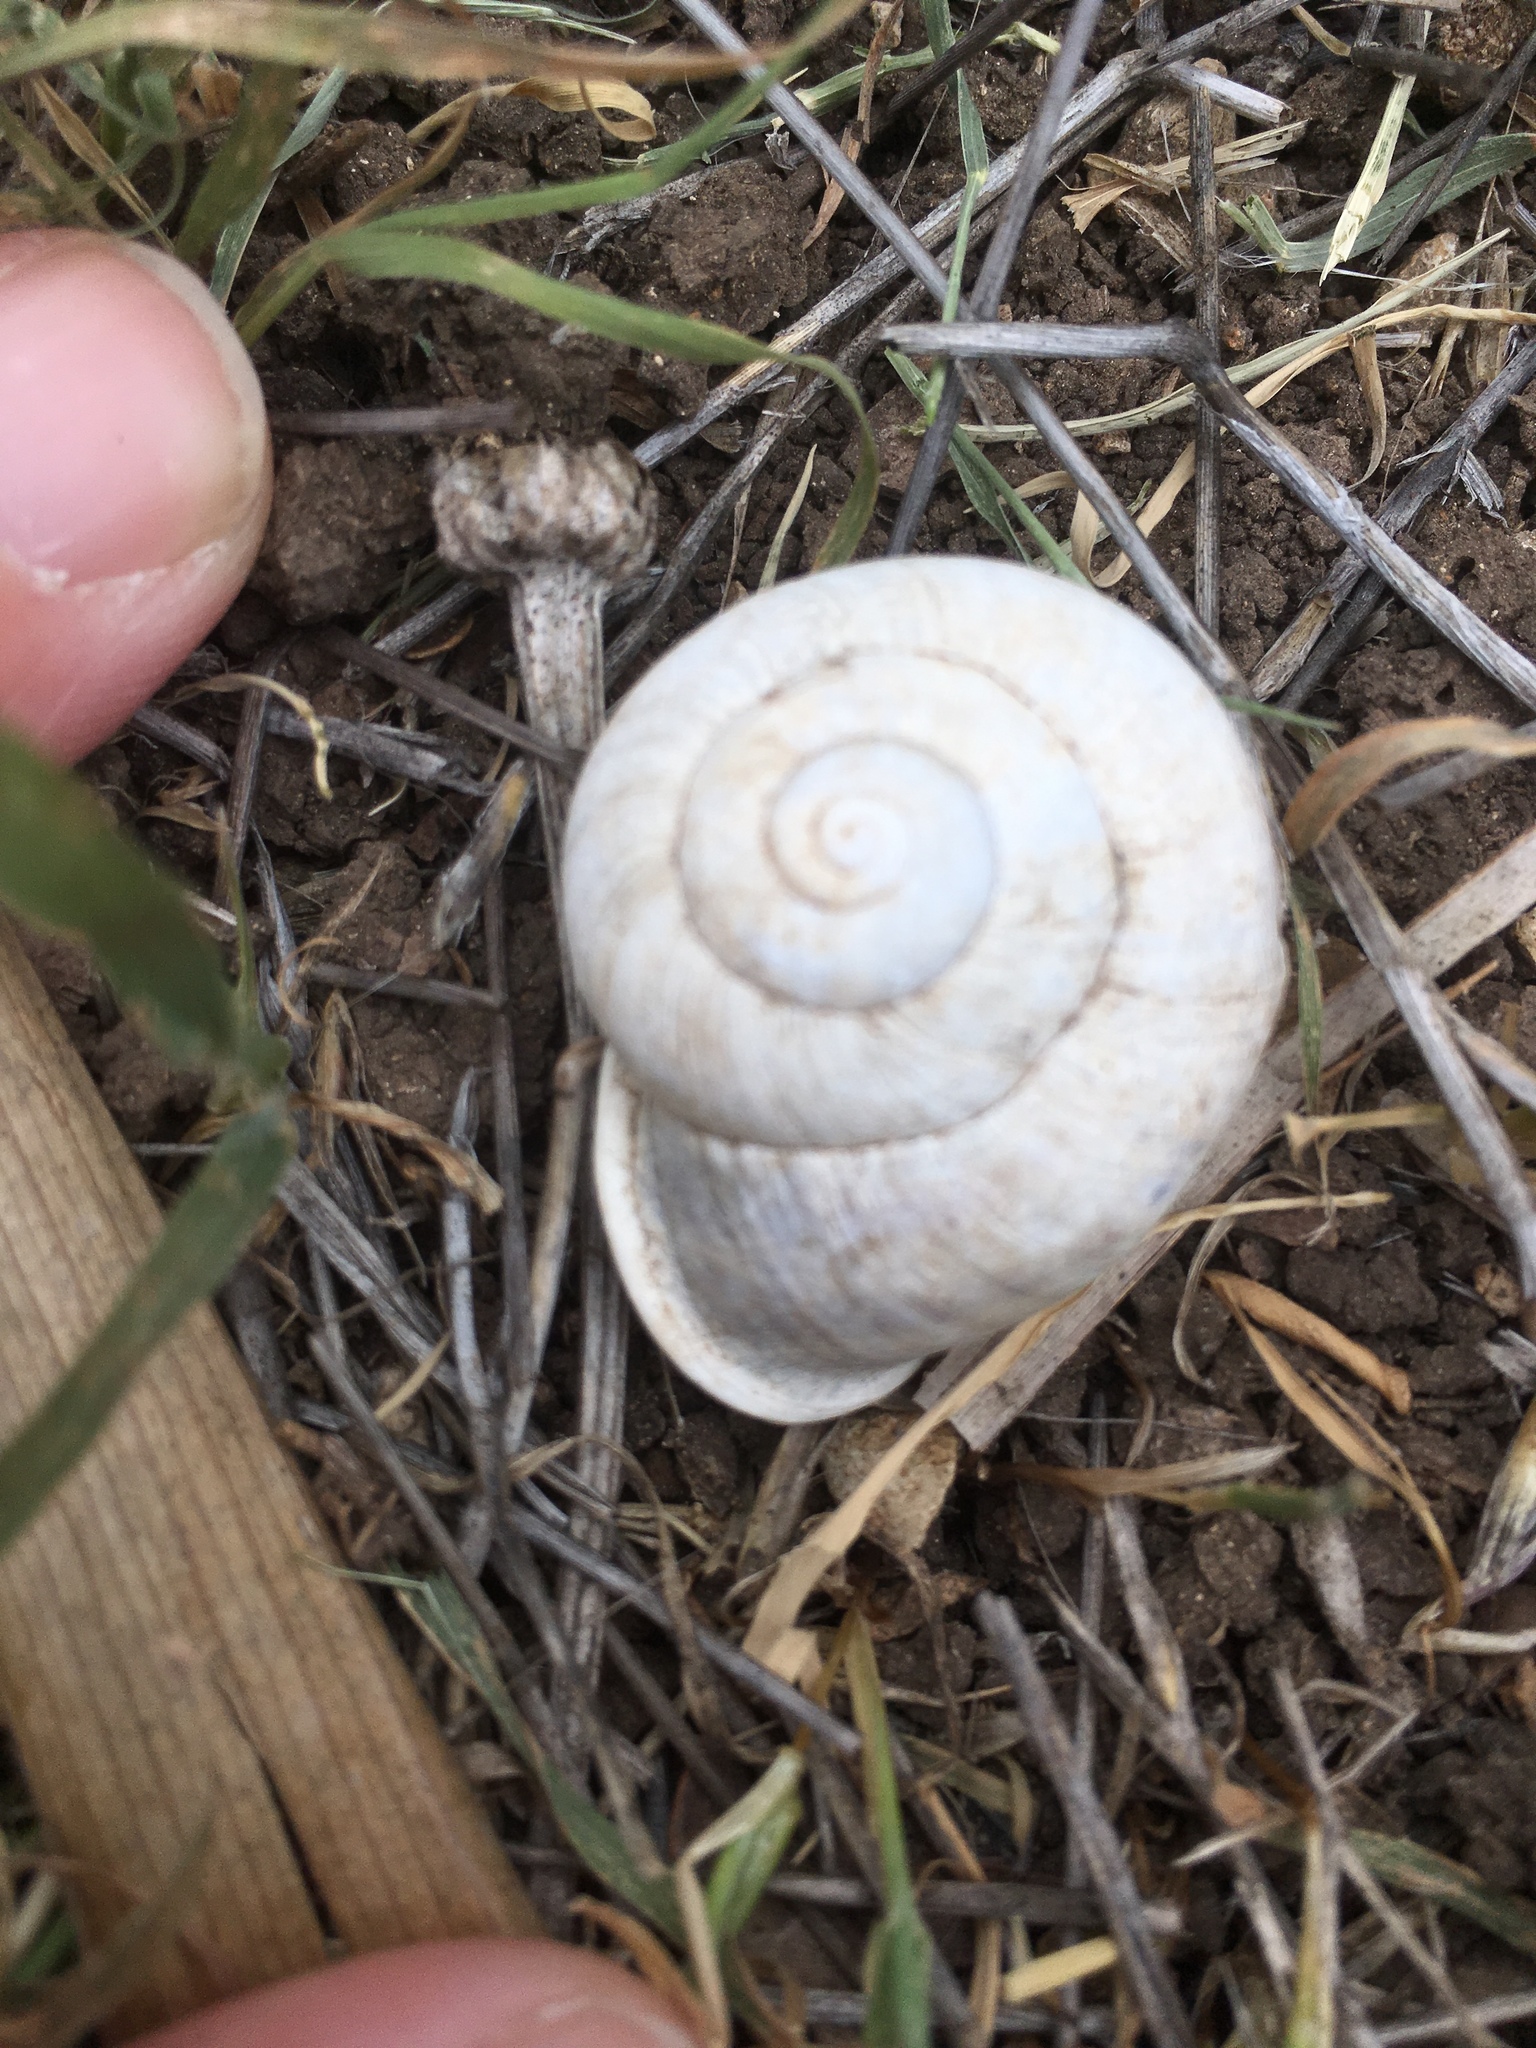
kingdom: Animalia
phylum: Mollusca
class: Gastropoda
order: Stylommatophora
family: Helicidae
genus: Otala
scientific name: Otala lactea
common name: Milk snail
